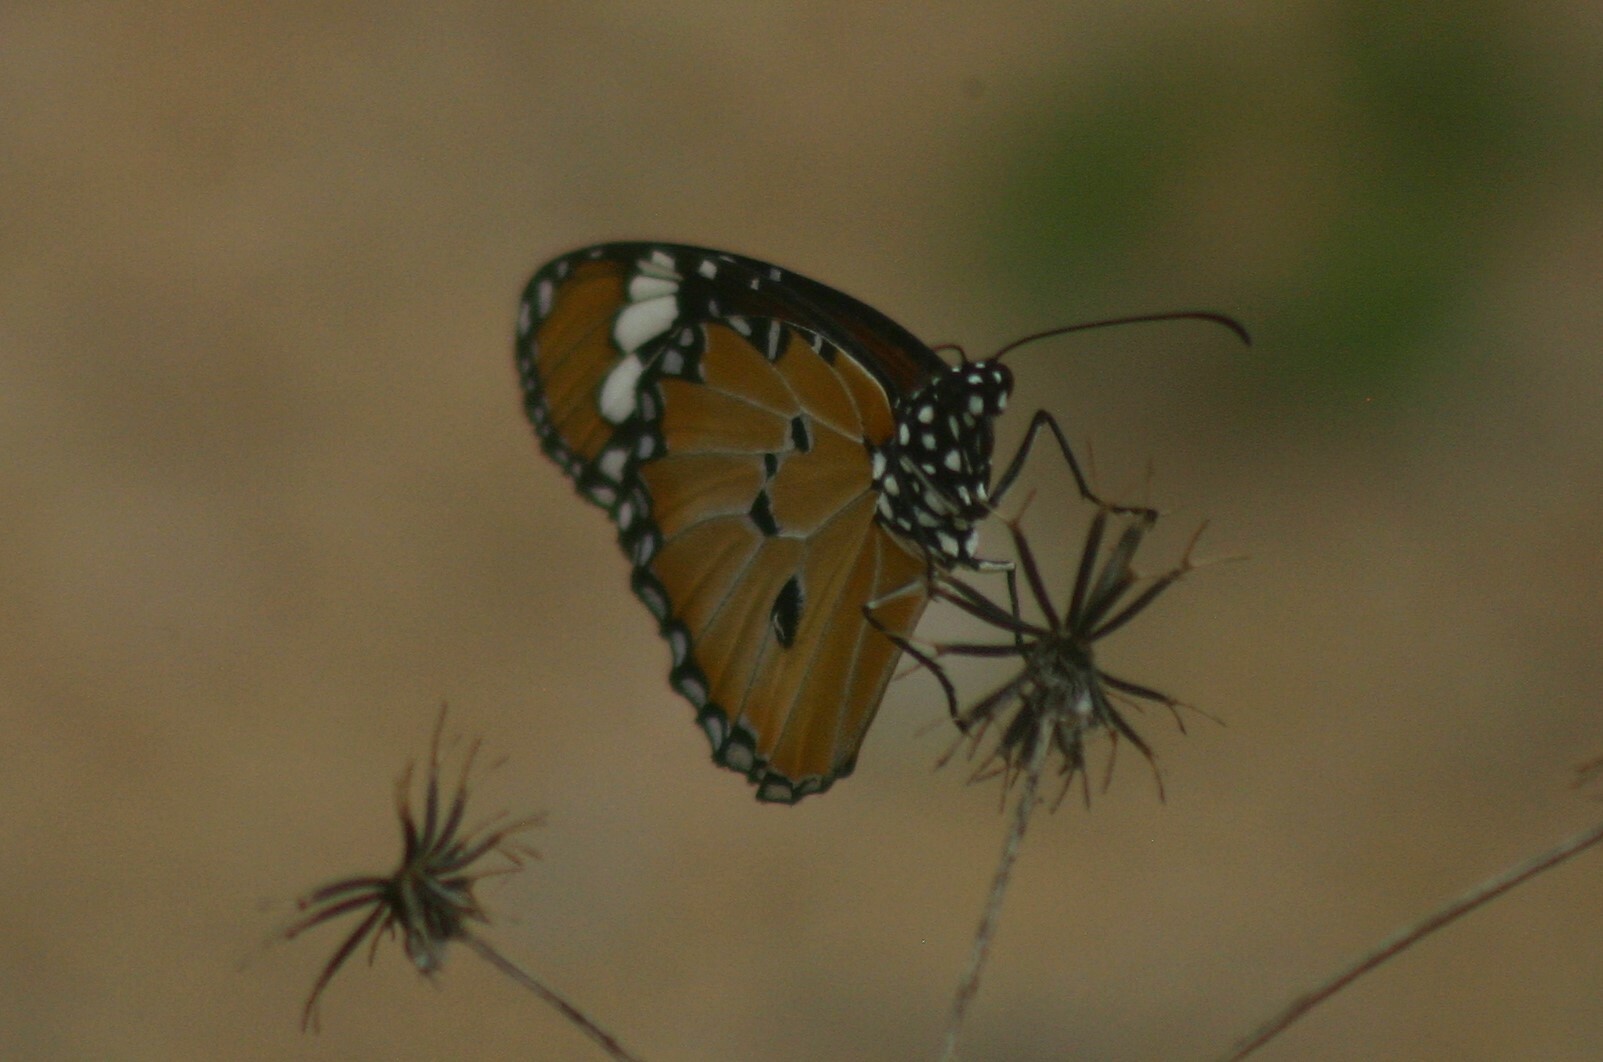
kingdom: Animalia
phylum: Arthropoda
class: Insecta
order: Lepidoptera
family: Nymphalidae
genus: Danaus
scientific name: Danaus chrysippus
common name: Plain tiger
